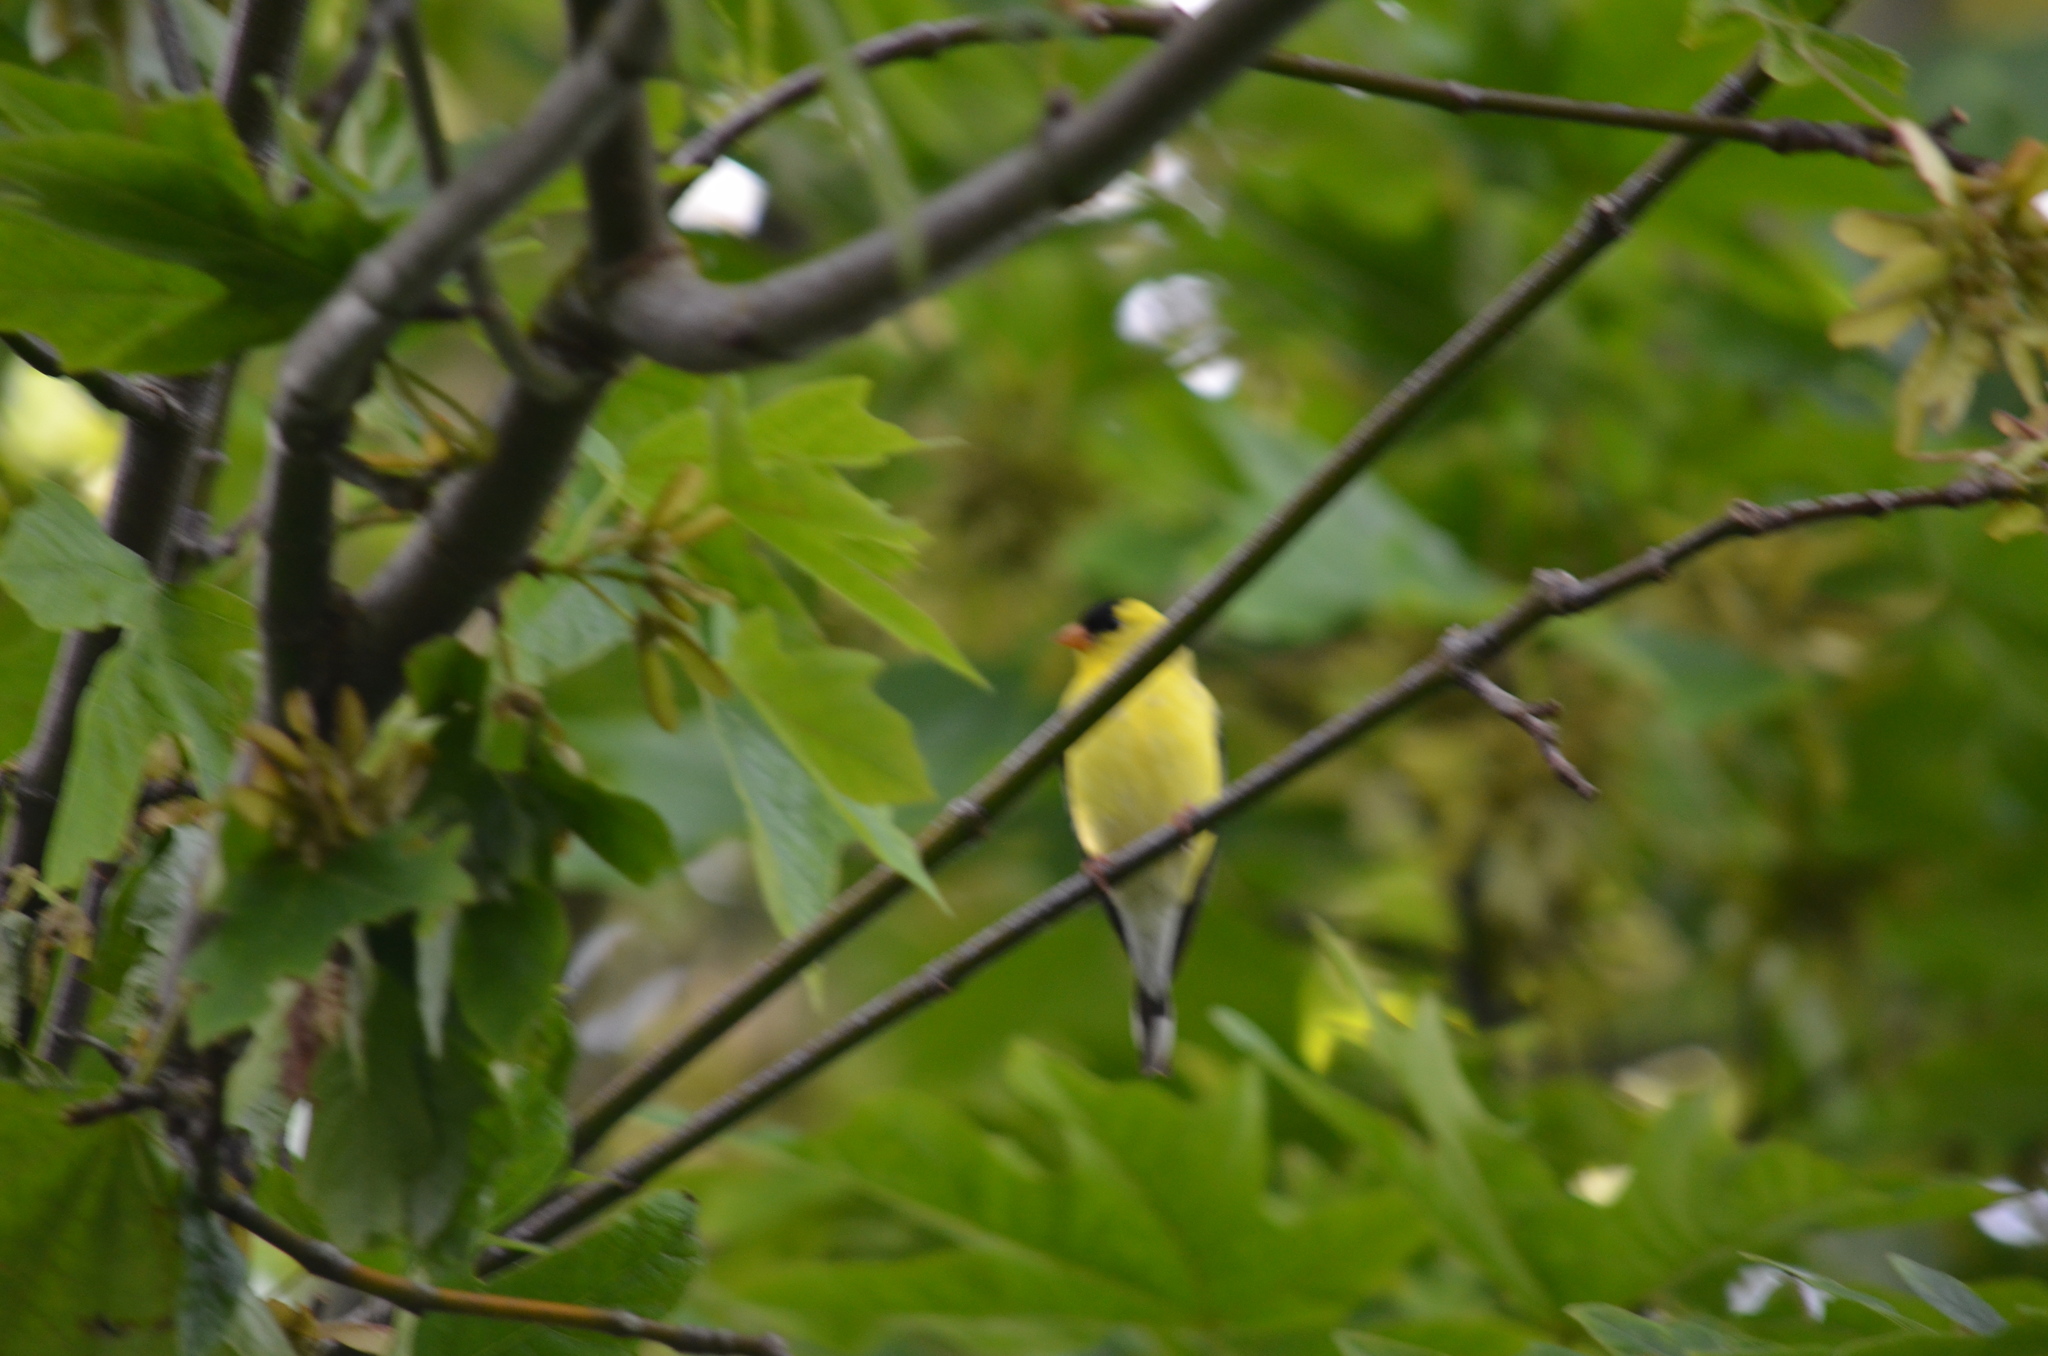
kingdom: Animalia
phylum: Chordata
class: Aves
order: Passeriformes
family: Fringillidae
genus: Spinus
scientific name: Spinus tristis
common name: American goldfinch
